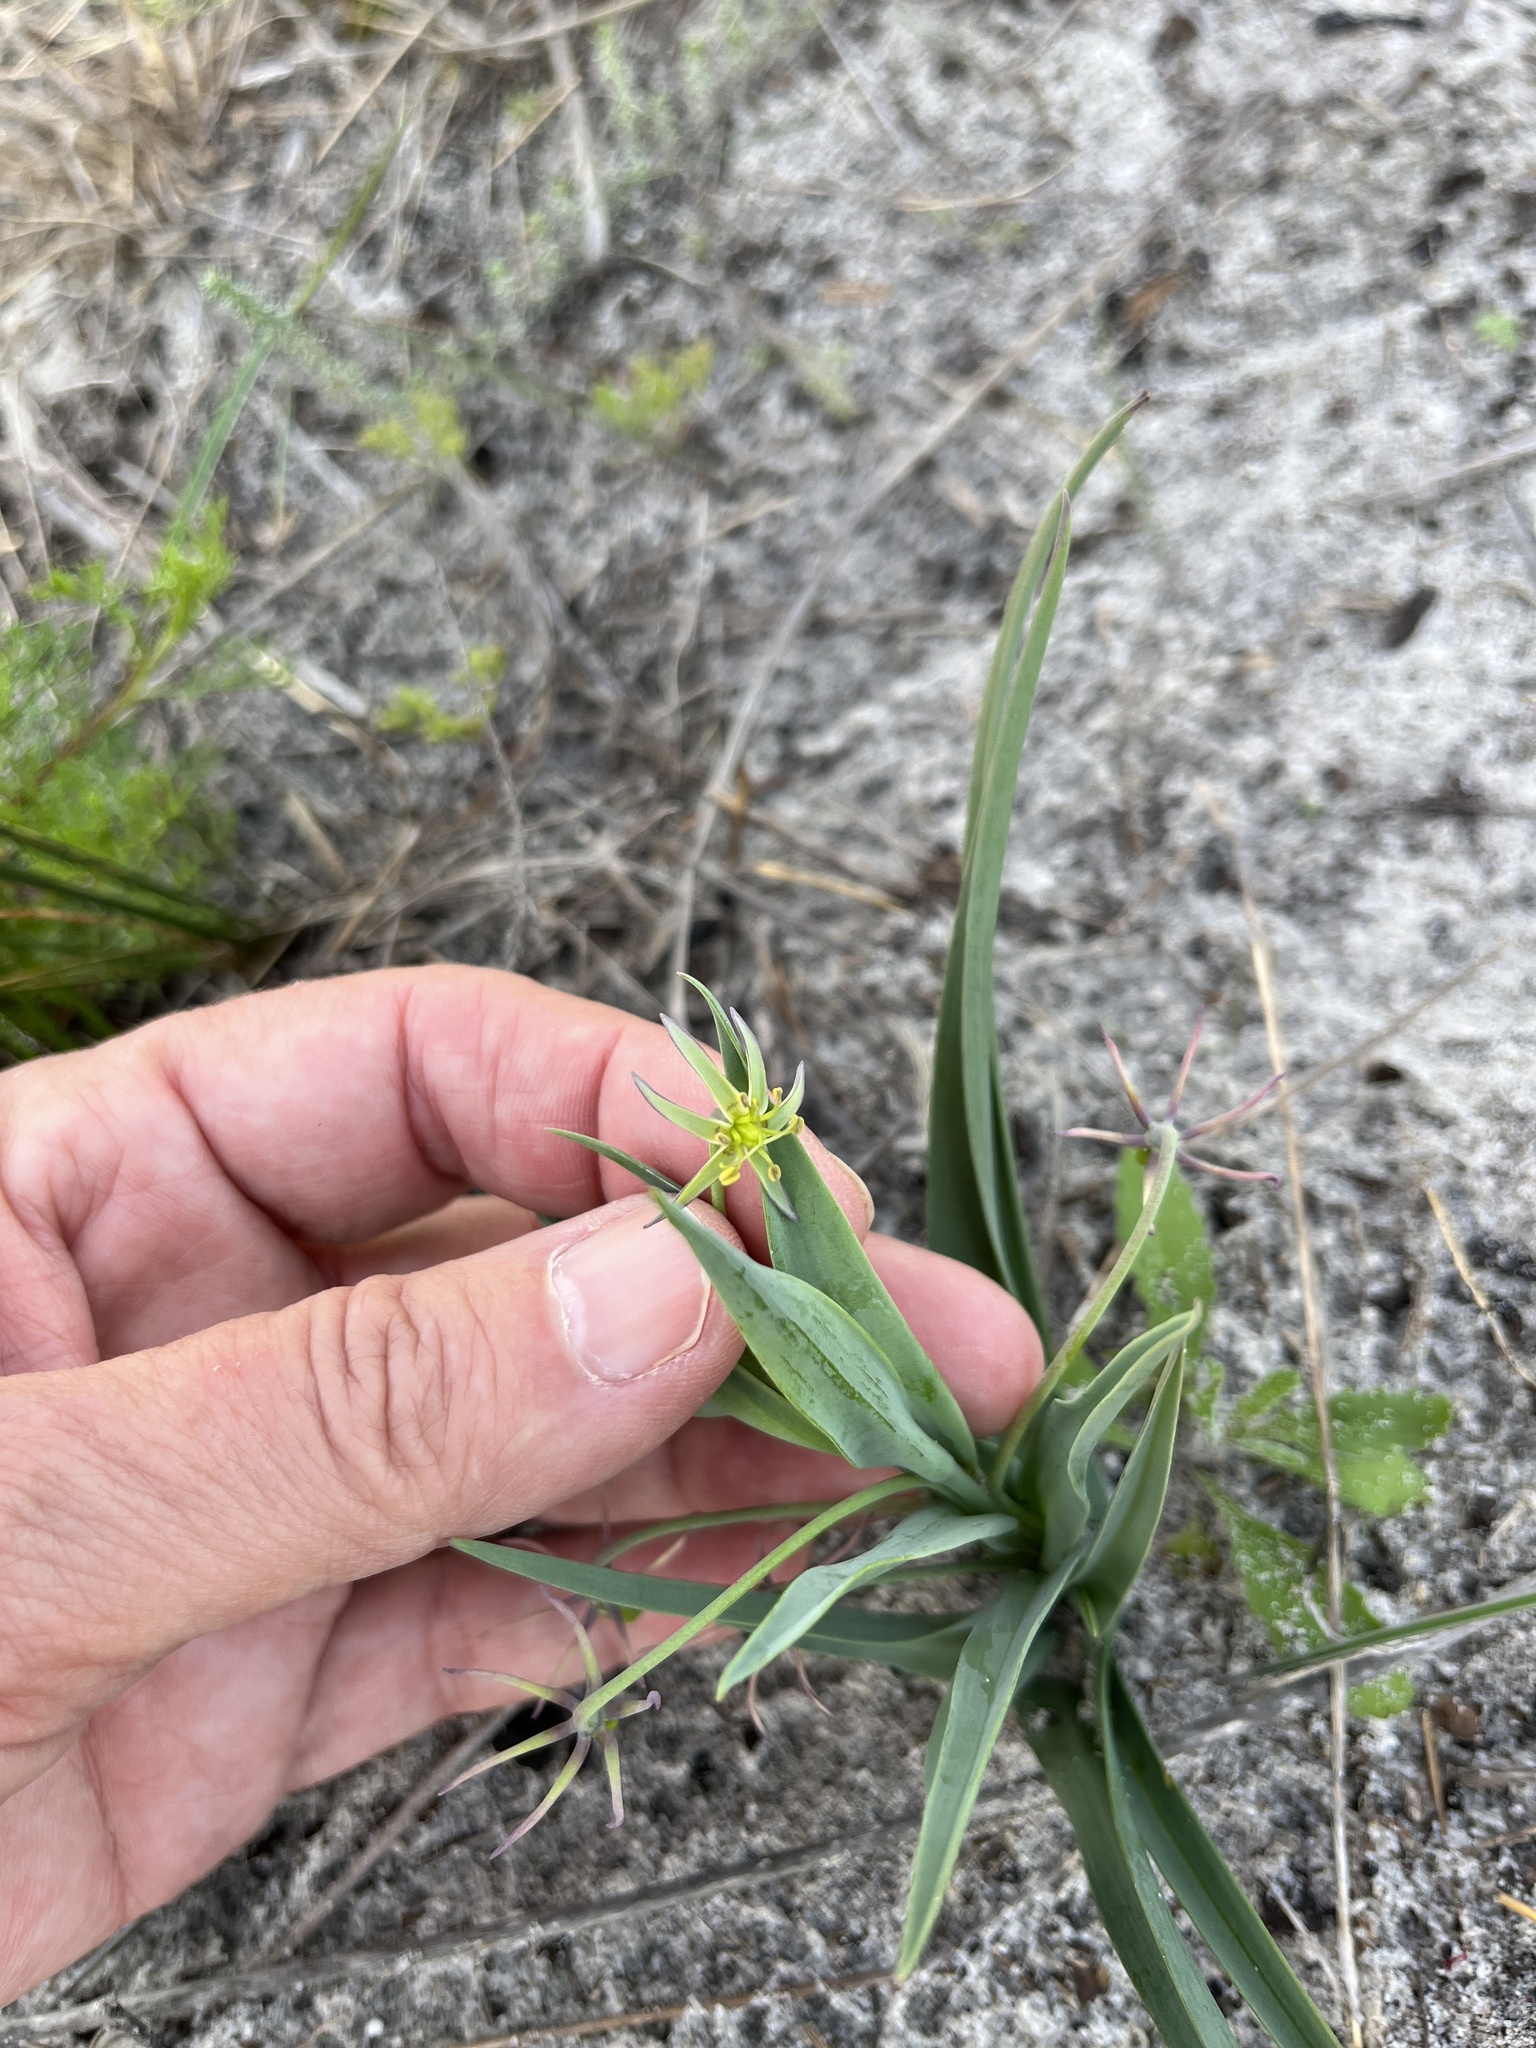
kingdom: Plantae
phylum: Tracheophyta
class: Liliopsida
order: Liliales
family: Colchicaceae
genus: Ornithoglossum
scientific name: Ornithoglossum viride
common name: Cape poison-onion
